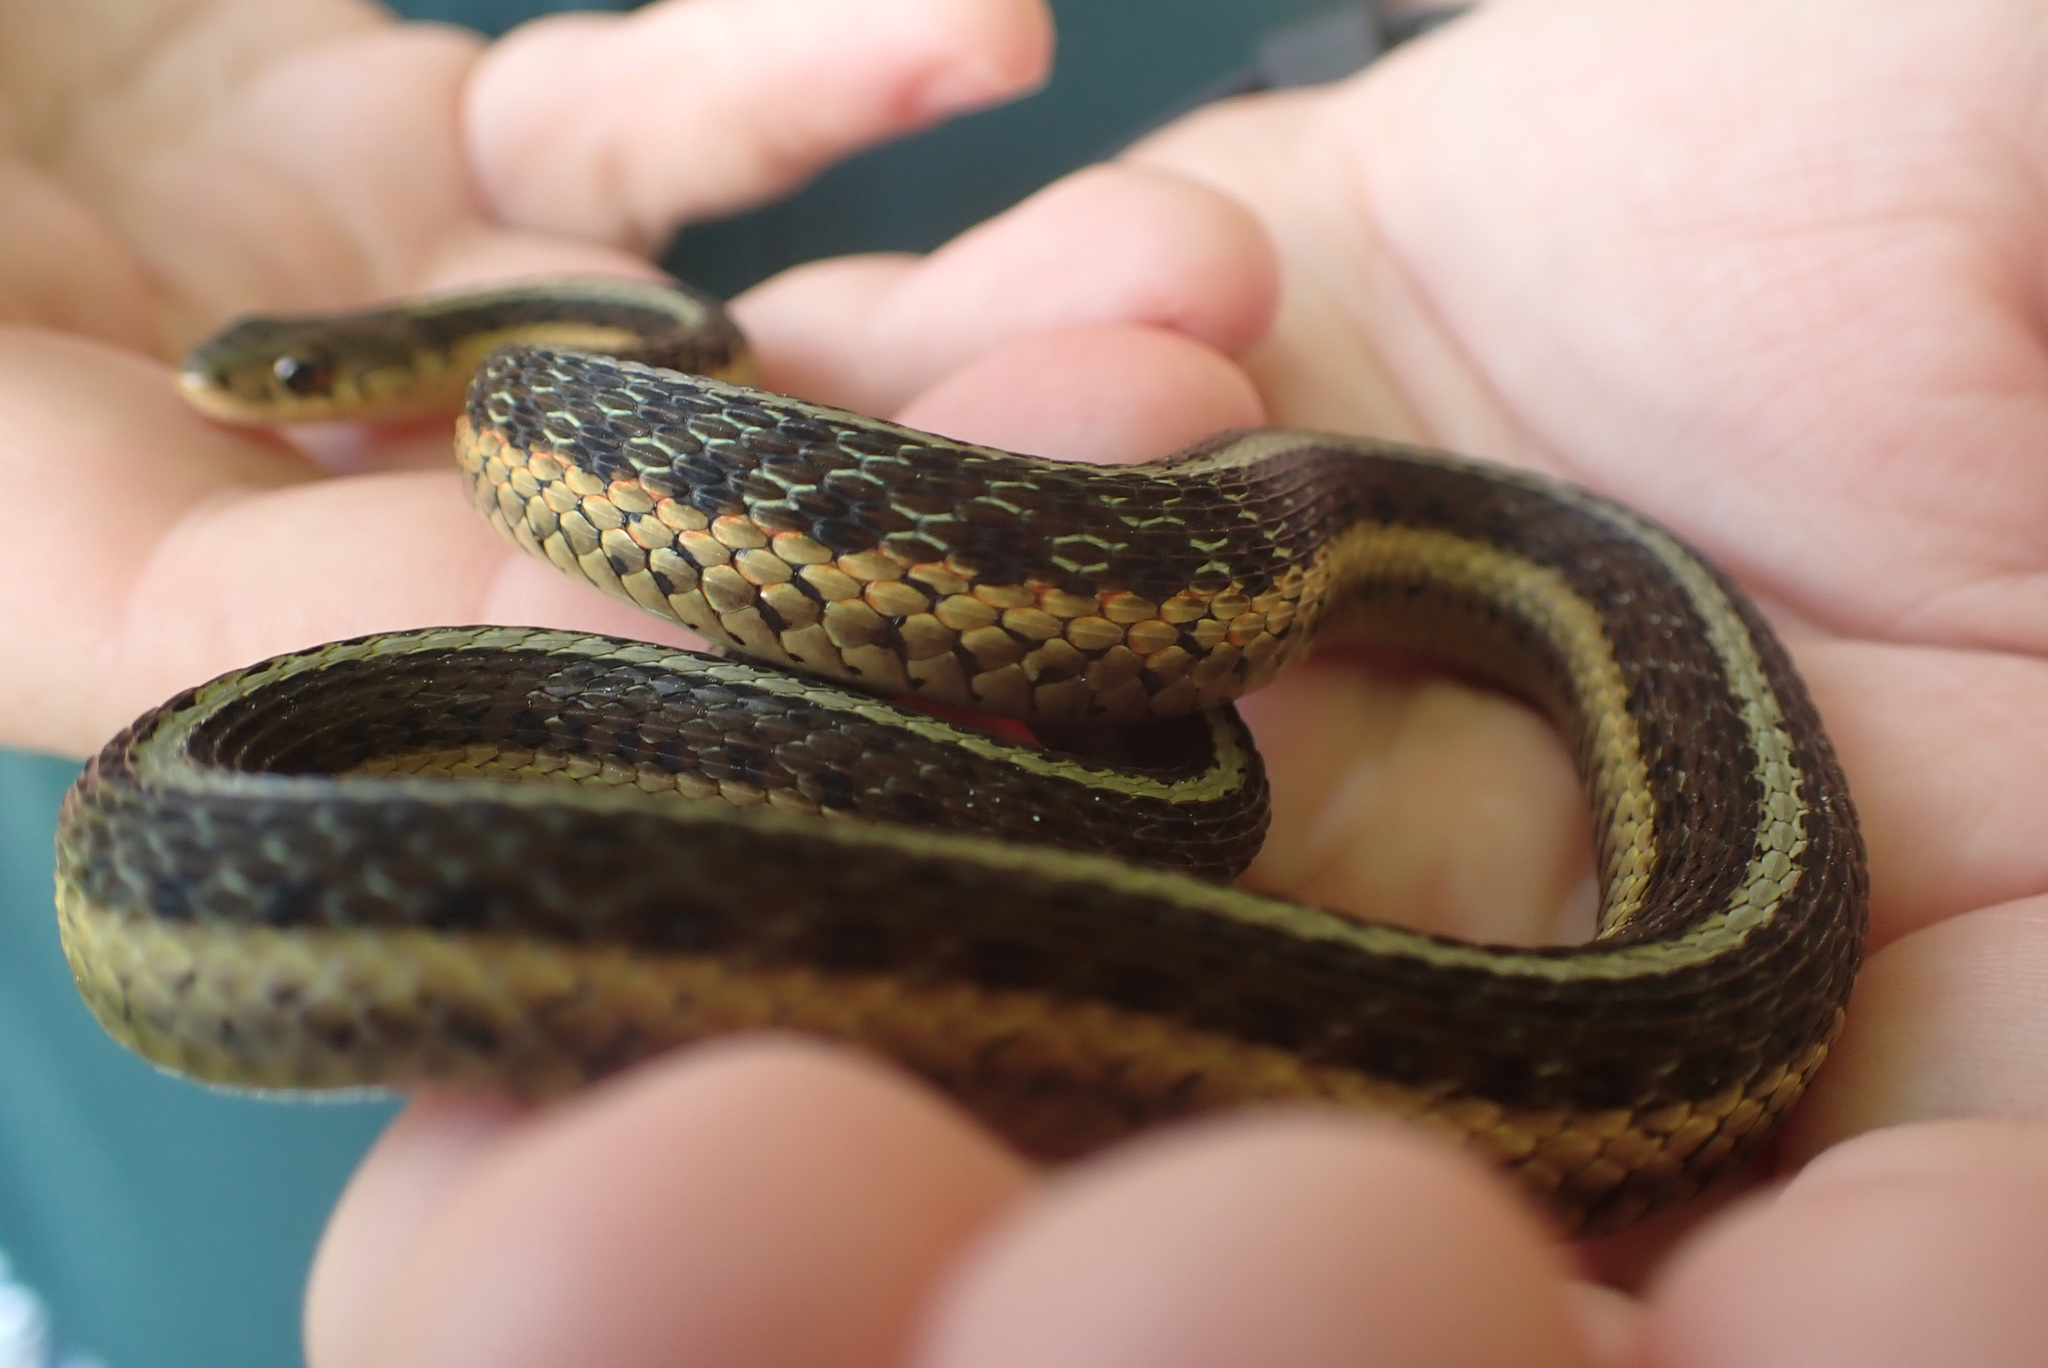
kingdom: Animalia
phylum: Chordata
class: Squamata
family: Colubridae
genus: Thamnophis
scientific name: Thamnophis sirtalis
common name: Common garter snake
